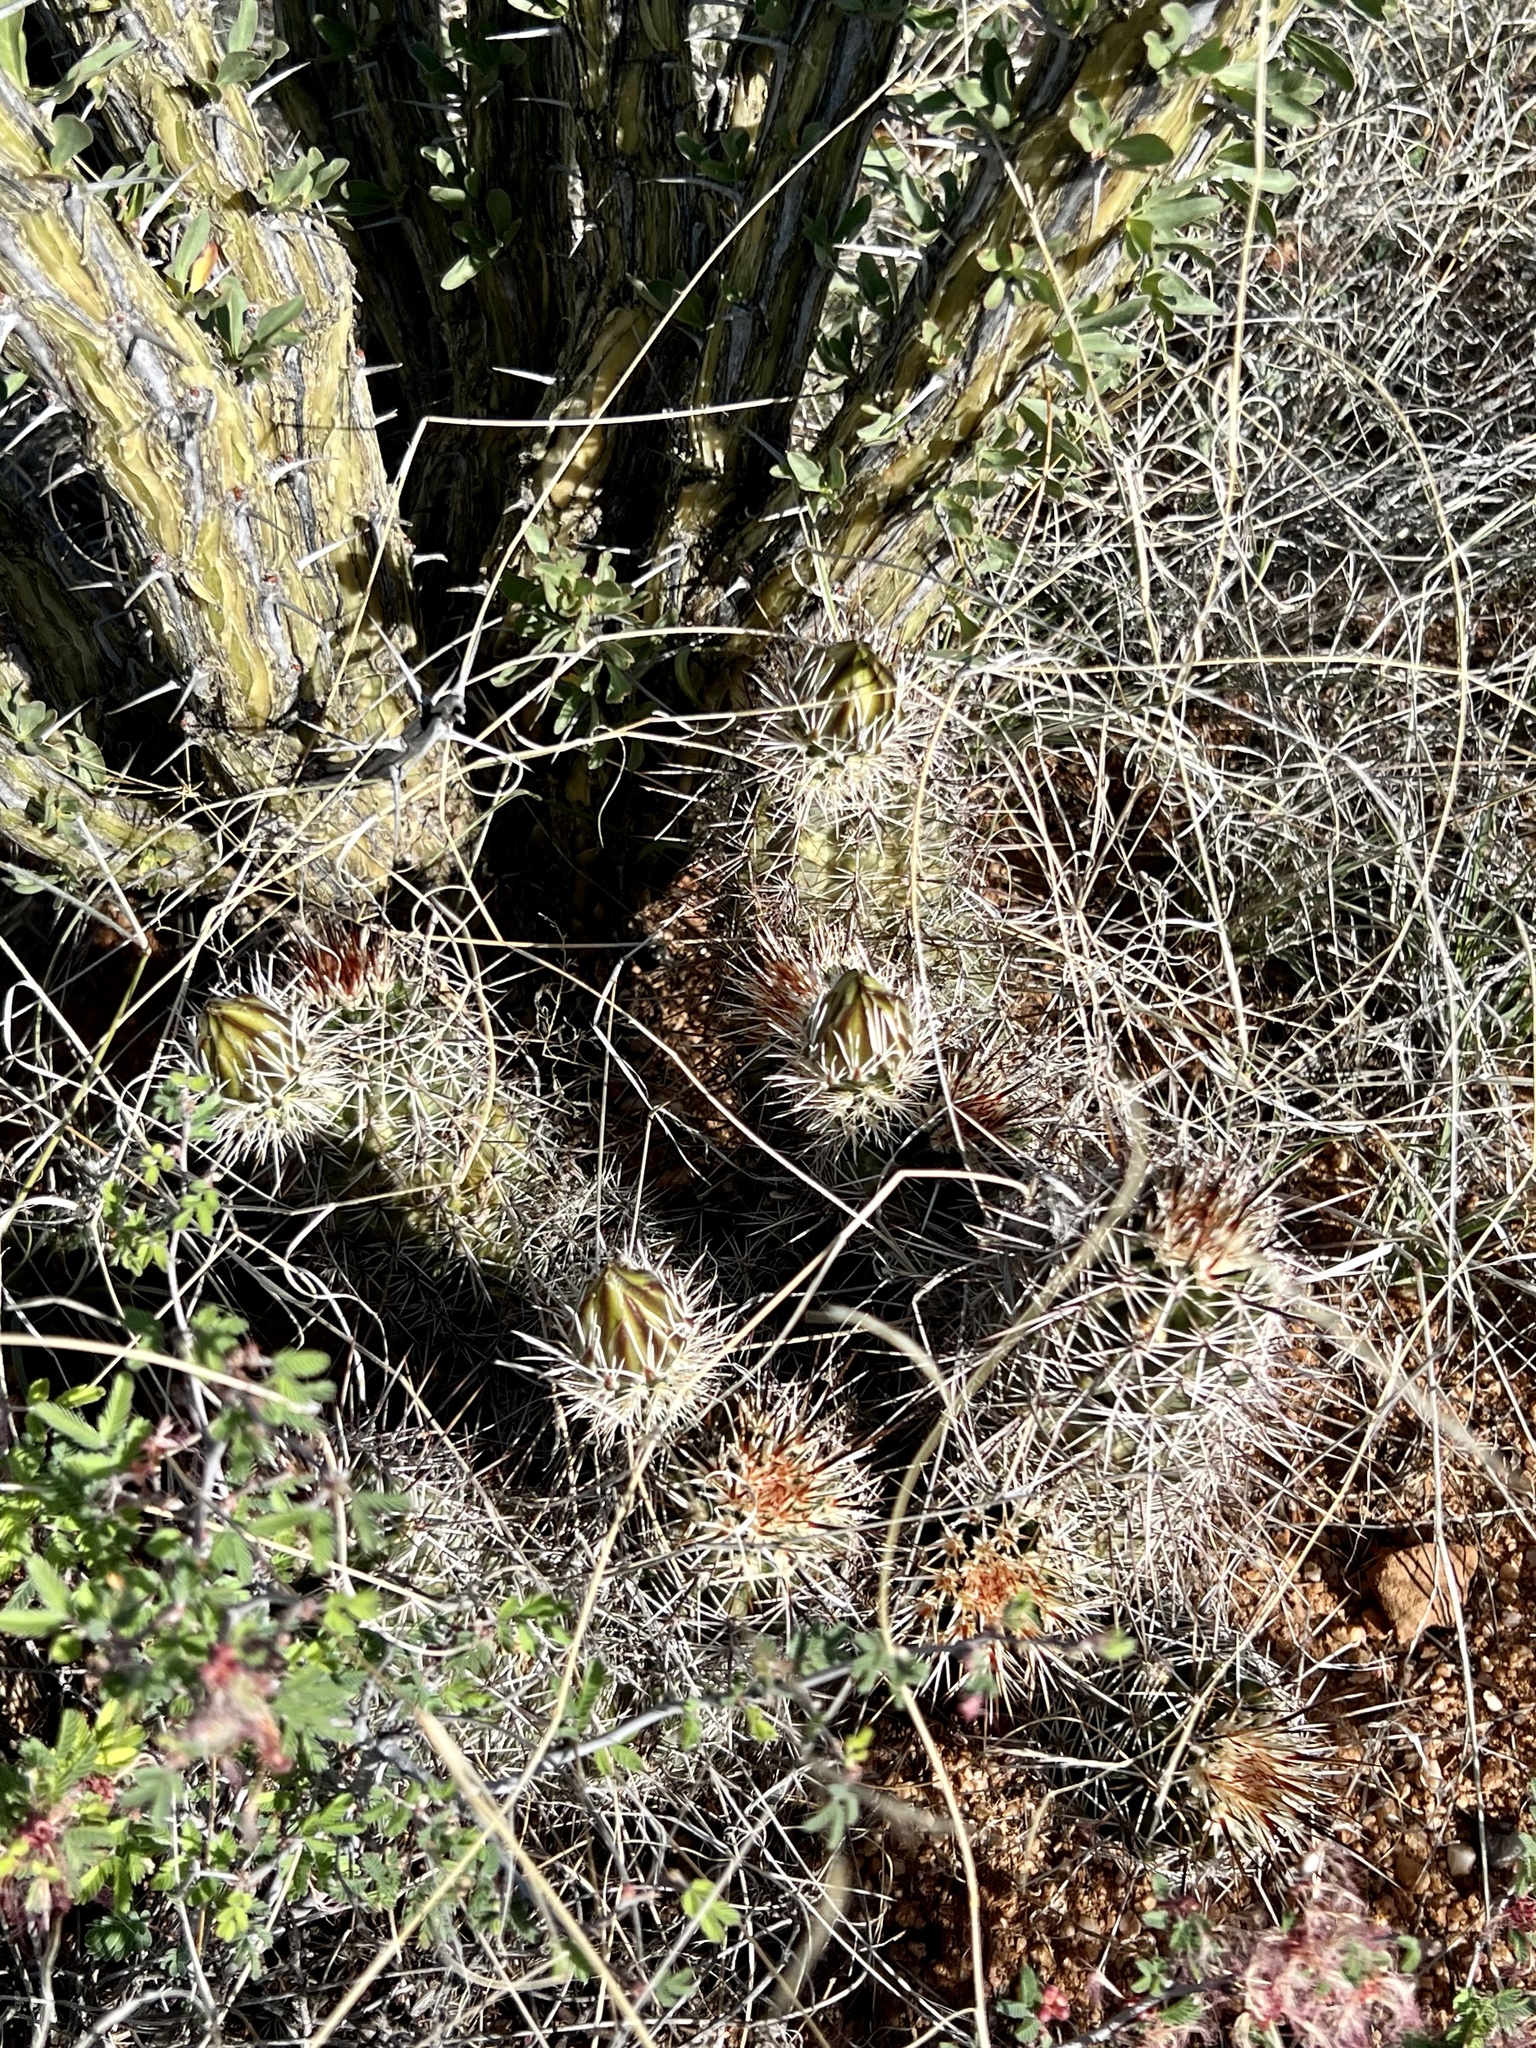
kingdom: Plantae
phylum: Tracheophyta
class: Magnoliopsida
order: Caryophyllales
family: Cactaceae
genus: Echinocereus
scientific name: Echinocereus fasciculatus
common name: Bundle hedgehog
